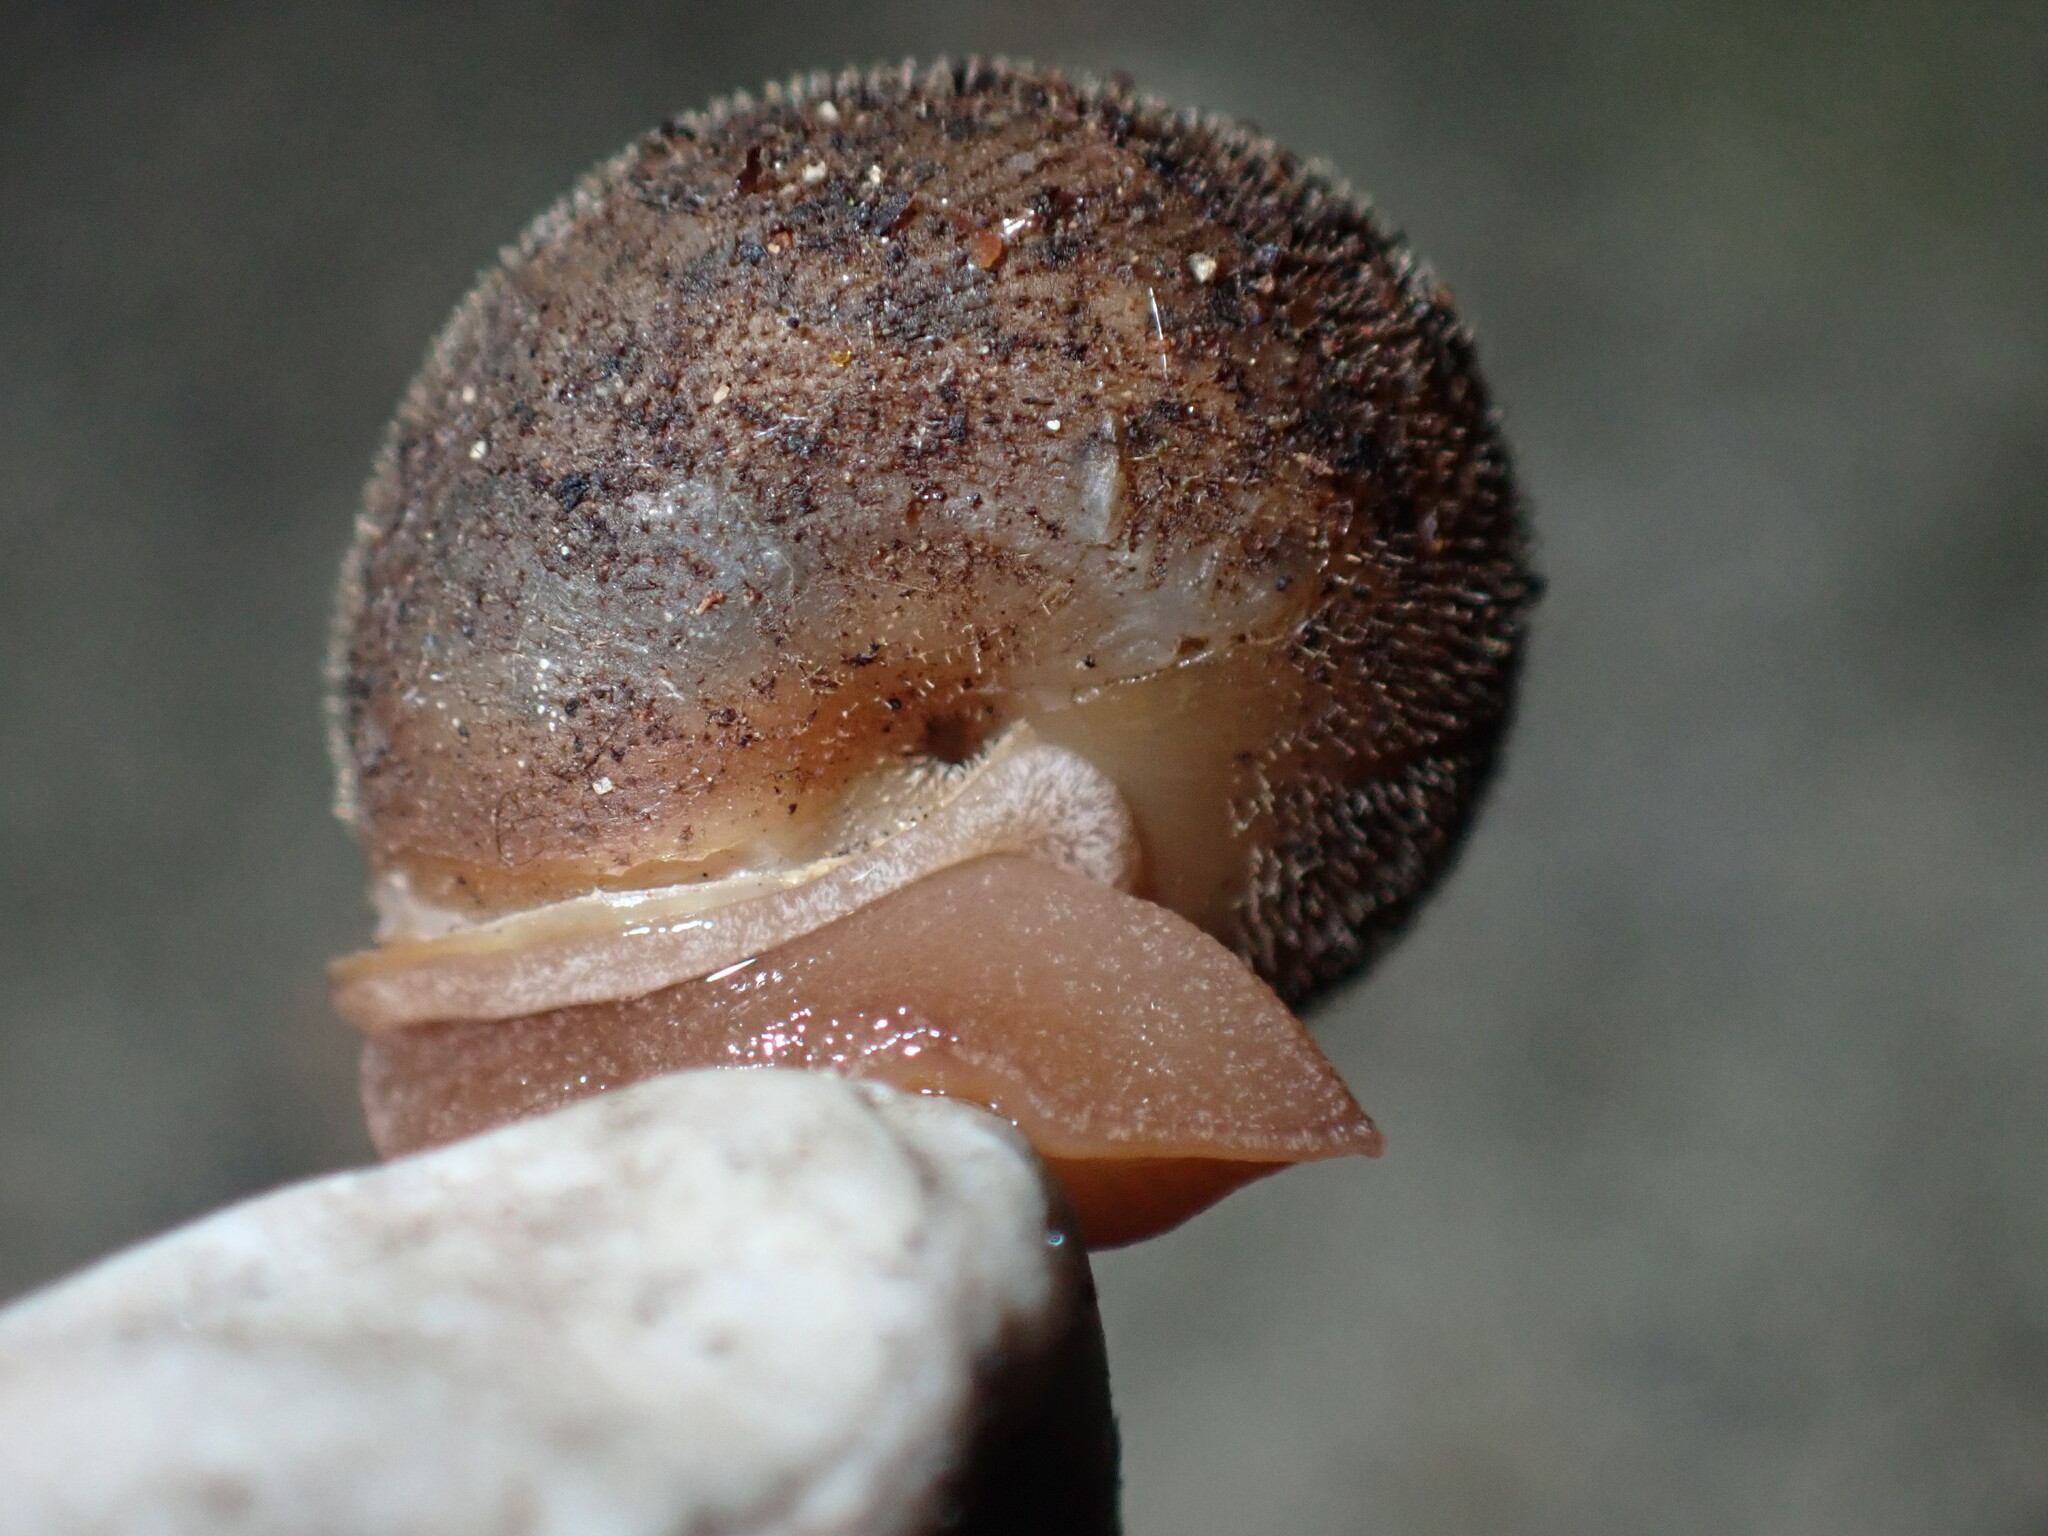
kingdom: Animalia
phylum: Mollusca
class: Gastropoda
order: Stylommatophora
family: Polygyridae
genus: Vespericola
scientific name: Vespericola columbianus
